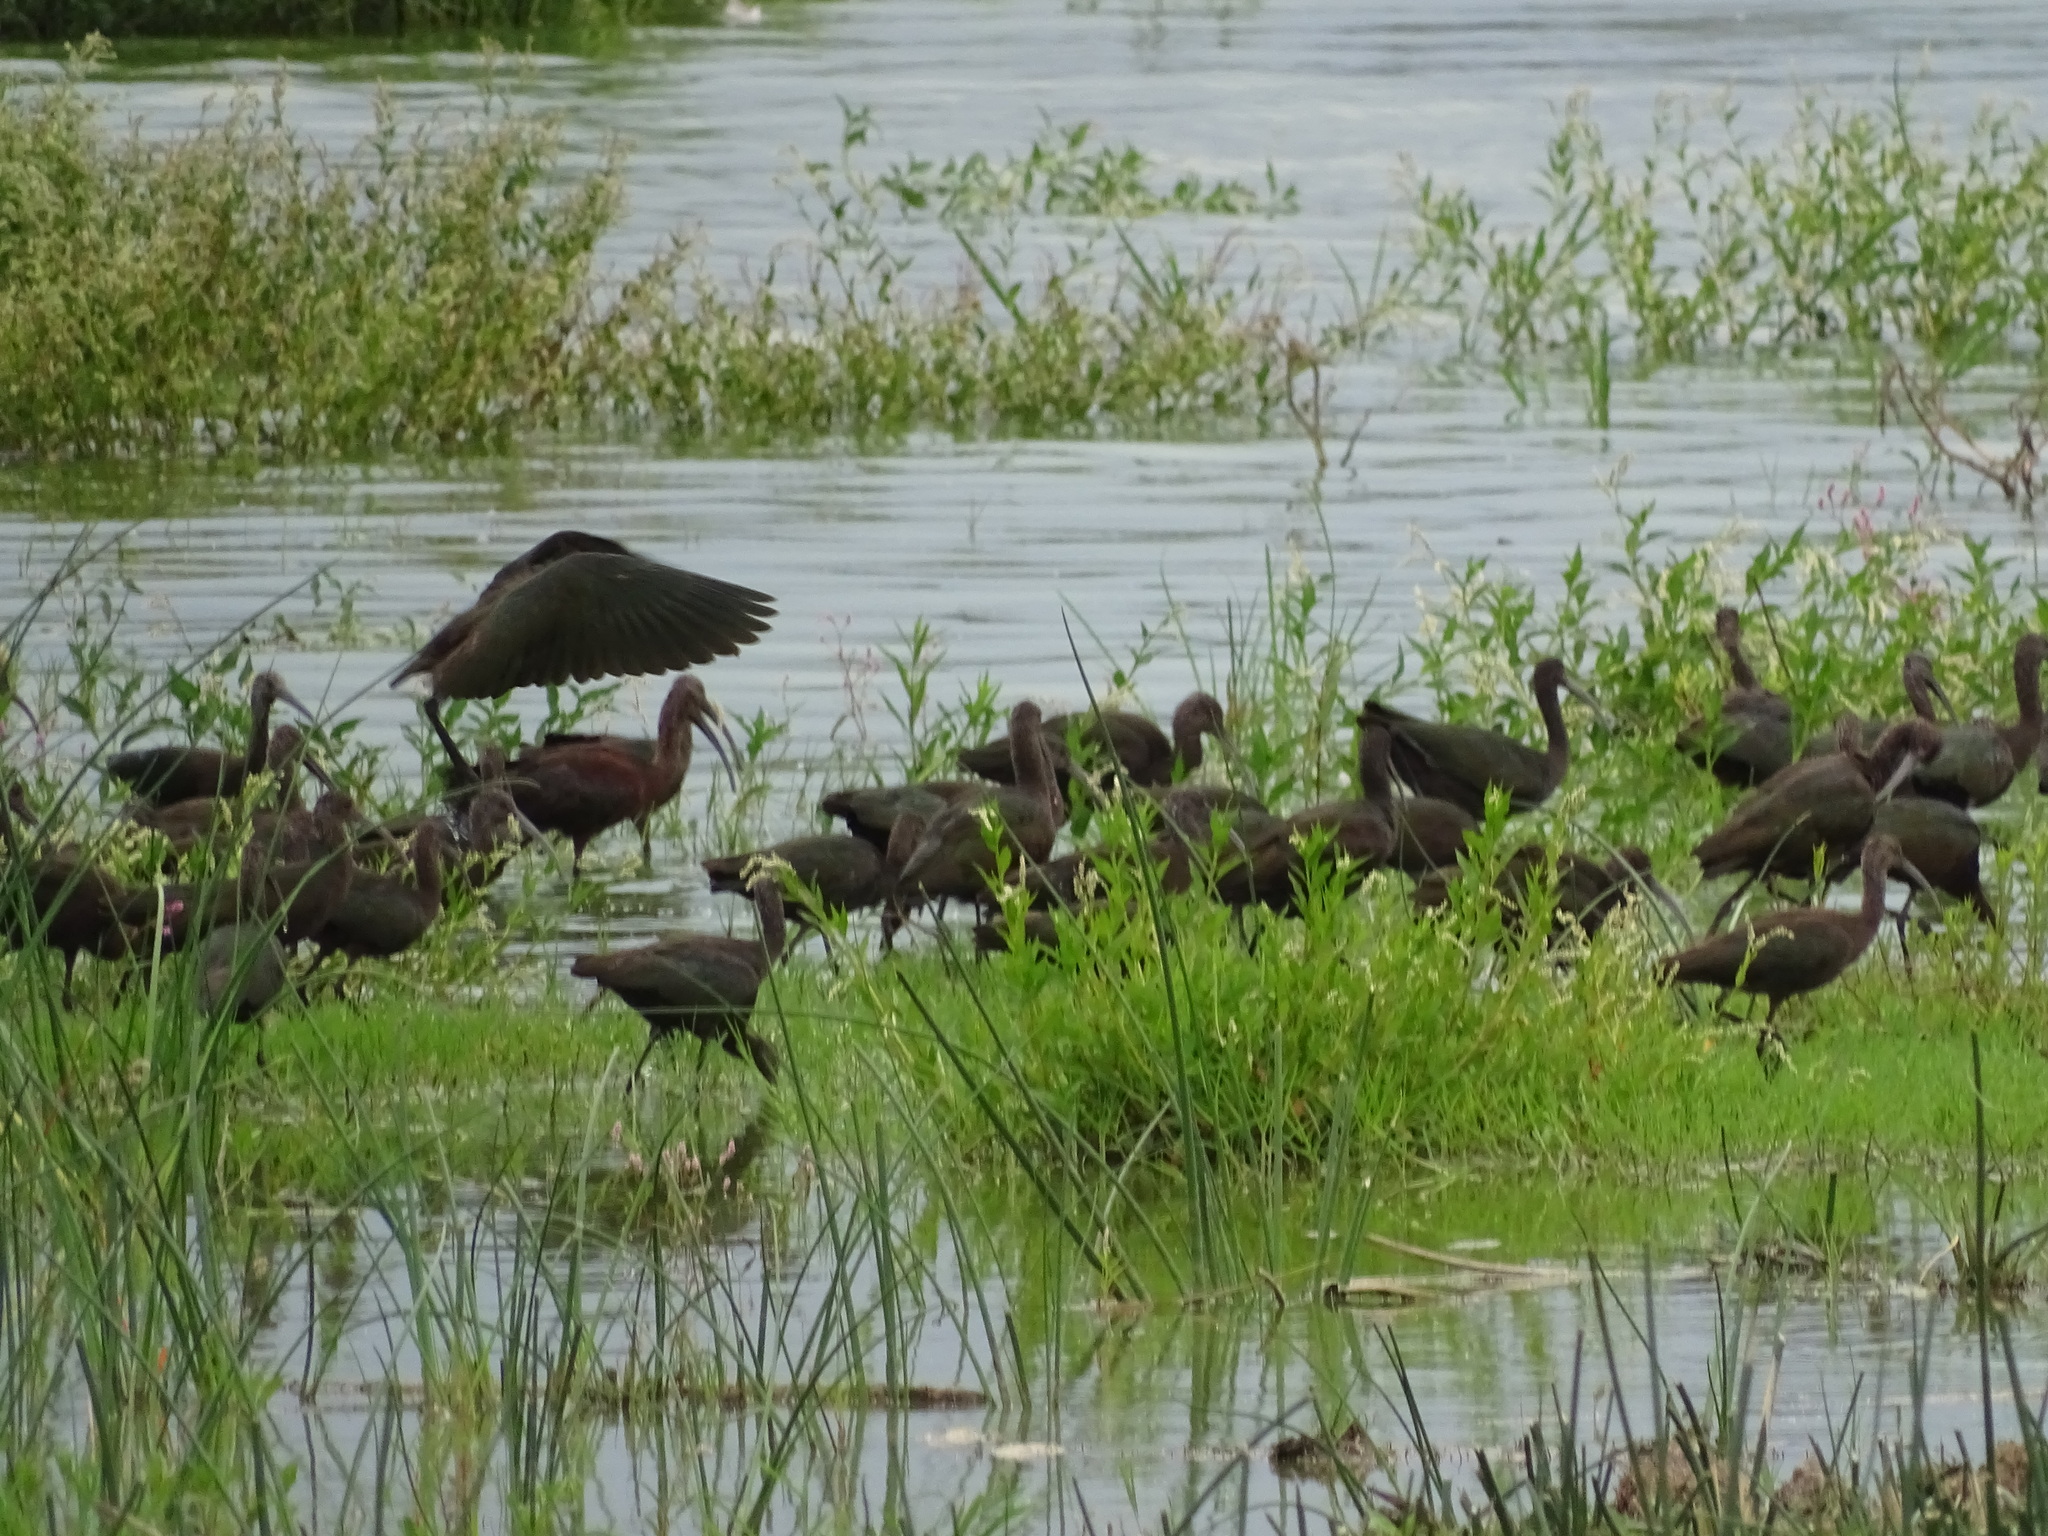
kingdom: Animalia
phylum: Chordata
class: Aves
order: Pelecaniformes
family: Threskiornithidae
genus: Plegadis
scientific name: Plegadis chihi
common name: White-faced ibis
